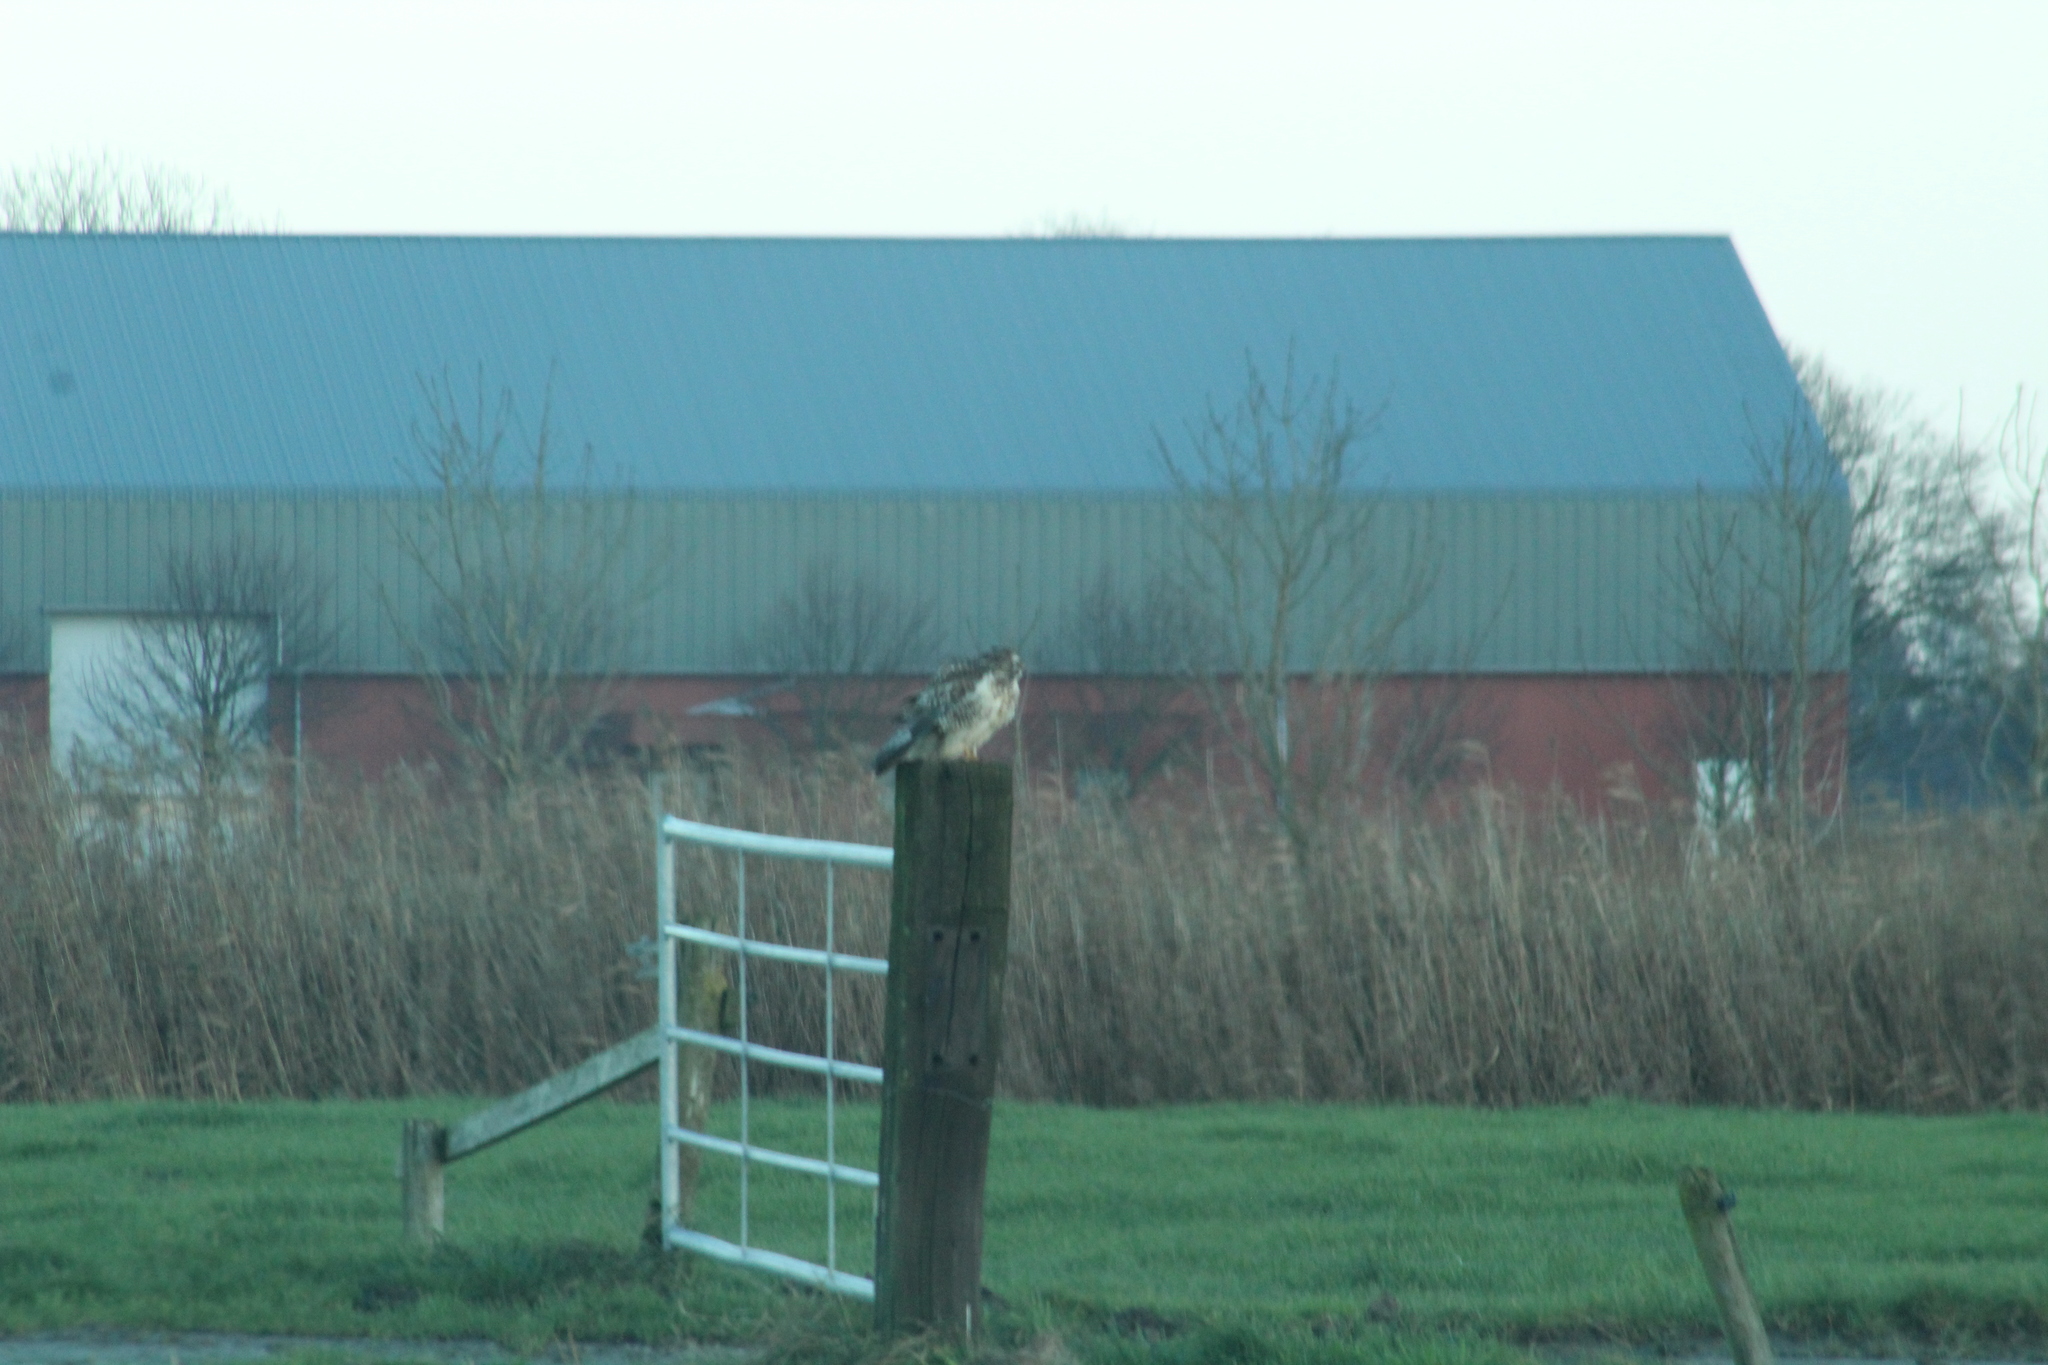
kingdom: Animalia
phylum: Chordata
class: Aves
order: Accipitriformes
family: Accipitridae
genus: Buteo
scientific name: Buteo buteo
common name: Common buzzard
